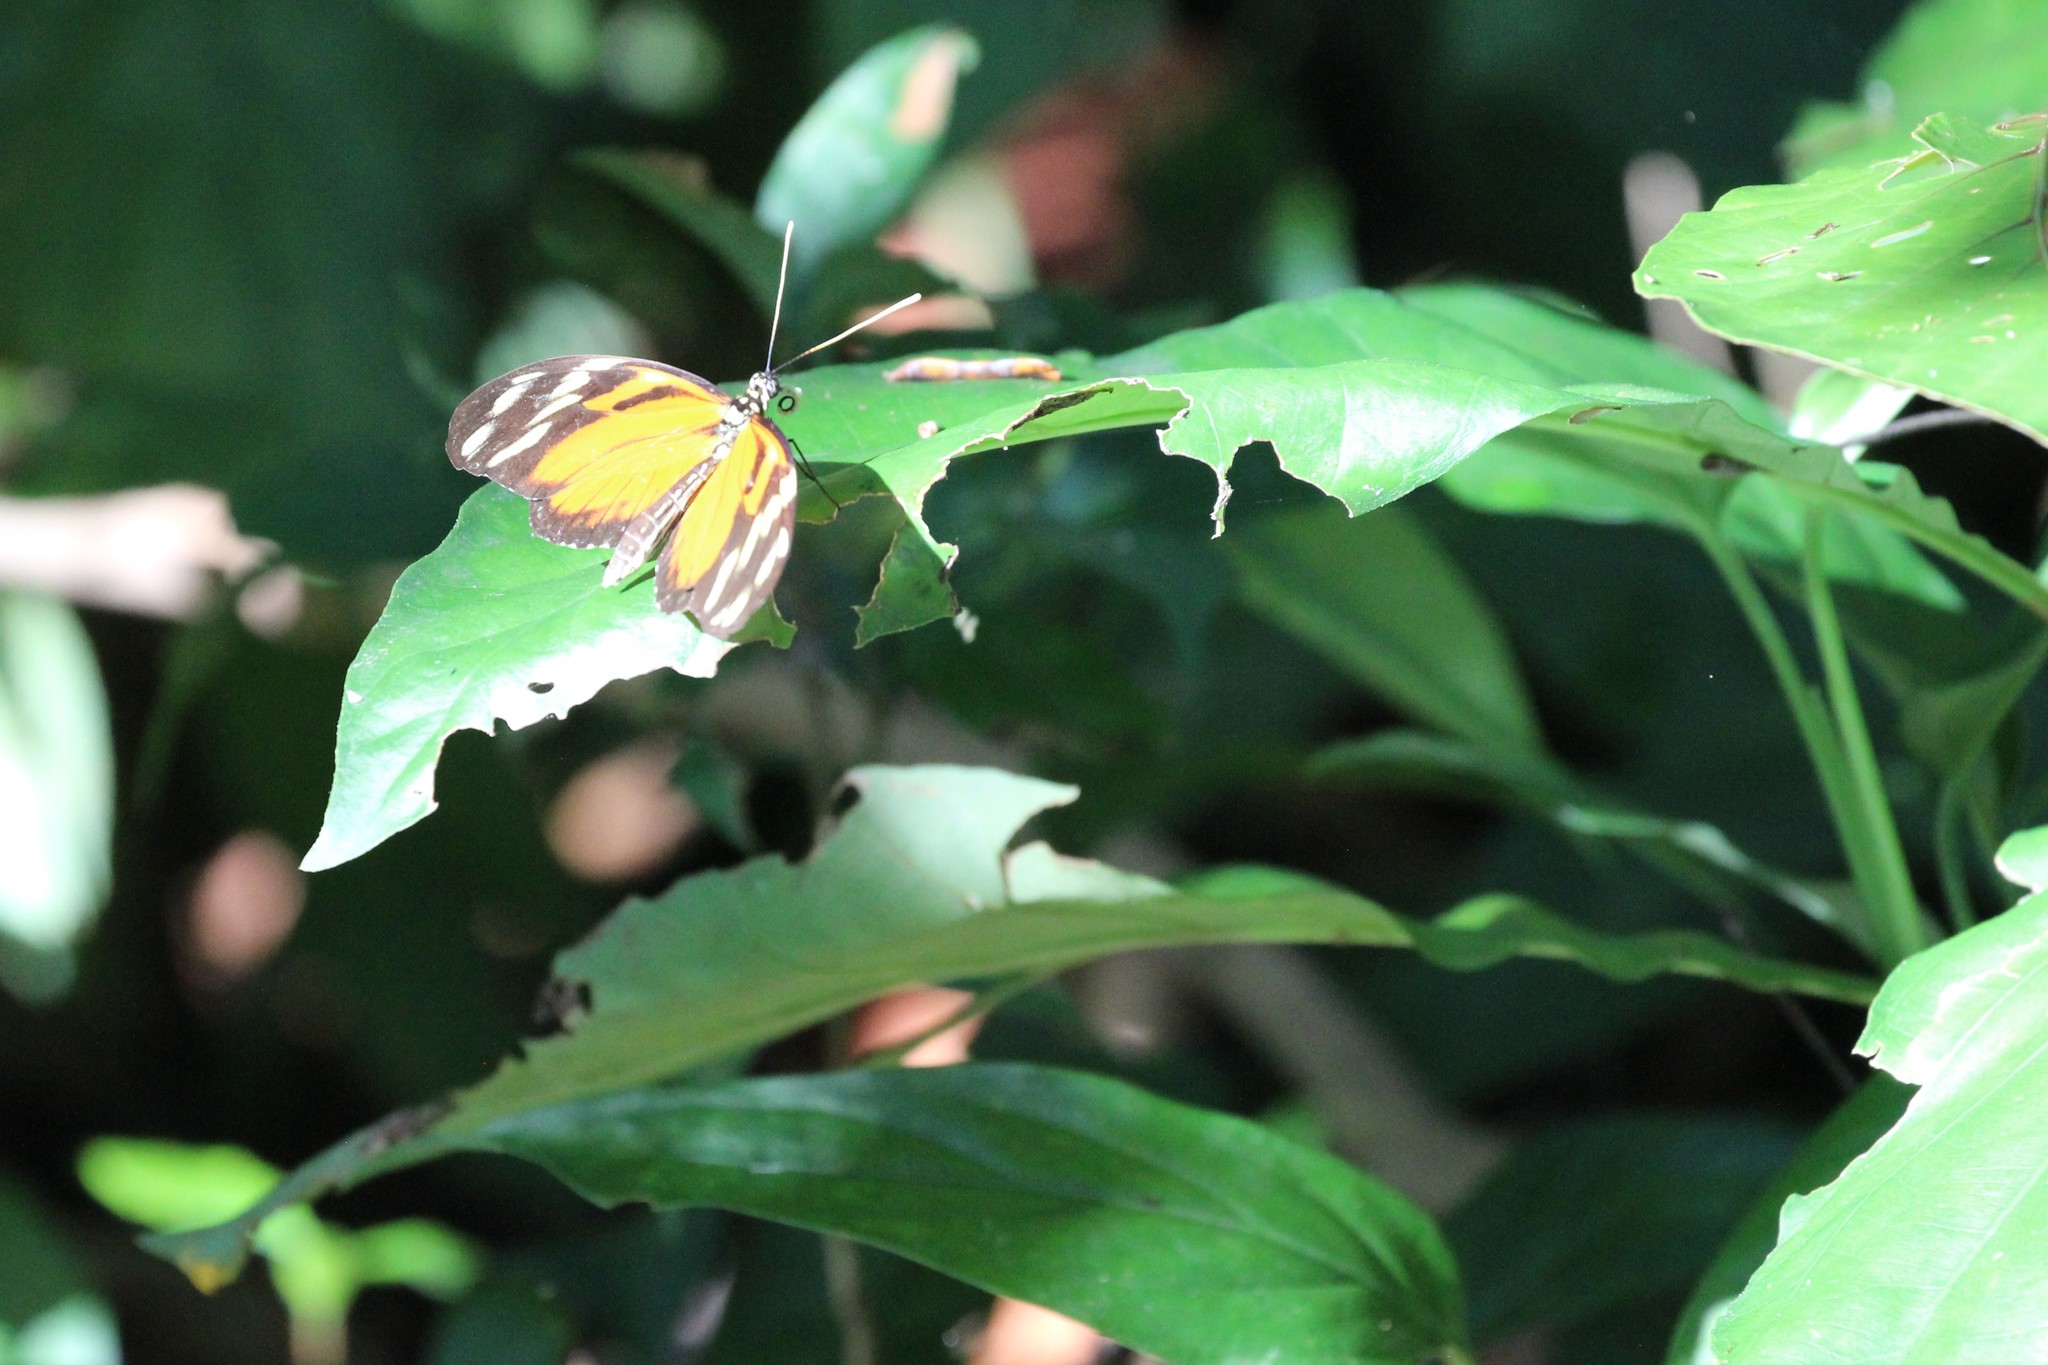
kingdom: Animalia
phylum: Arthropoda
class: Insecta
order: Lepidoptera
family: Nymphalidae
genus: Heliconius
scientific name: Heliconius ismenius
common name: Ismenius tiger
